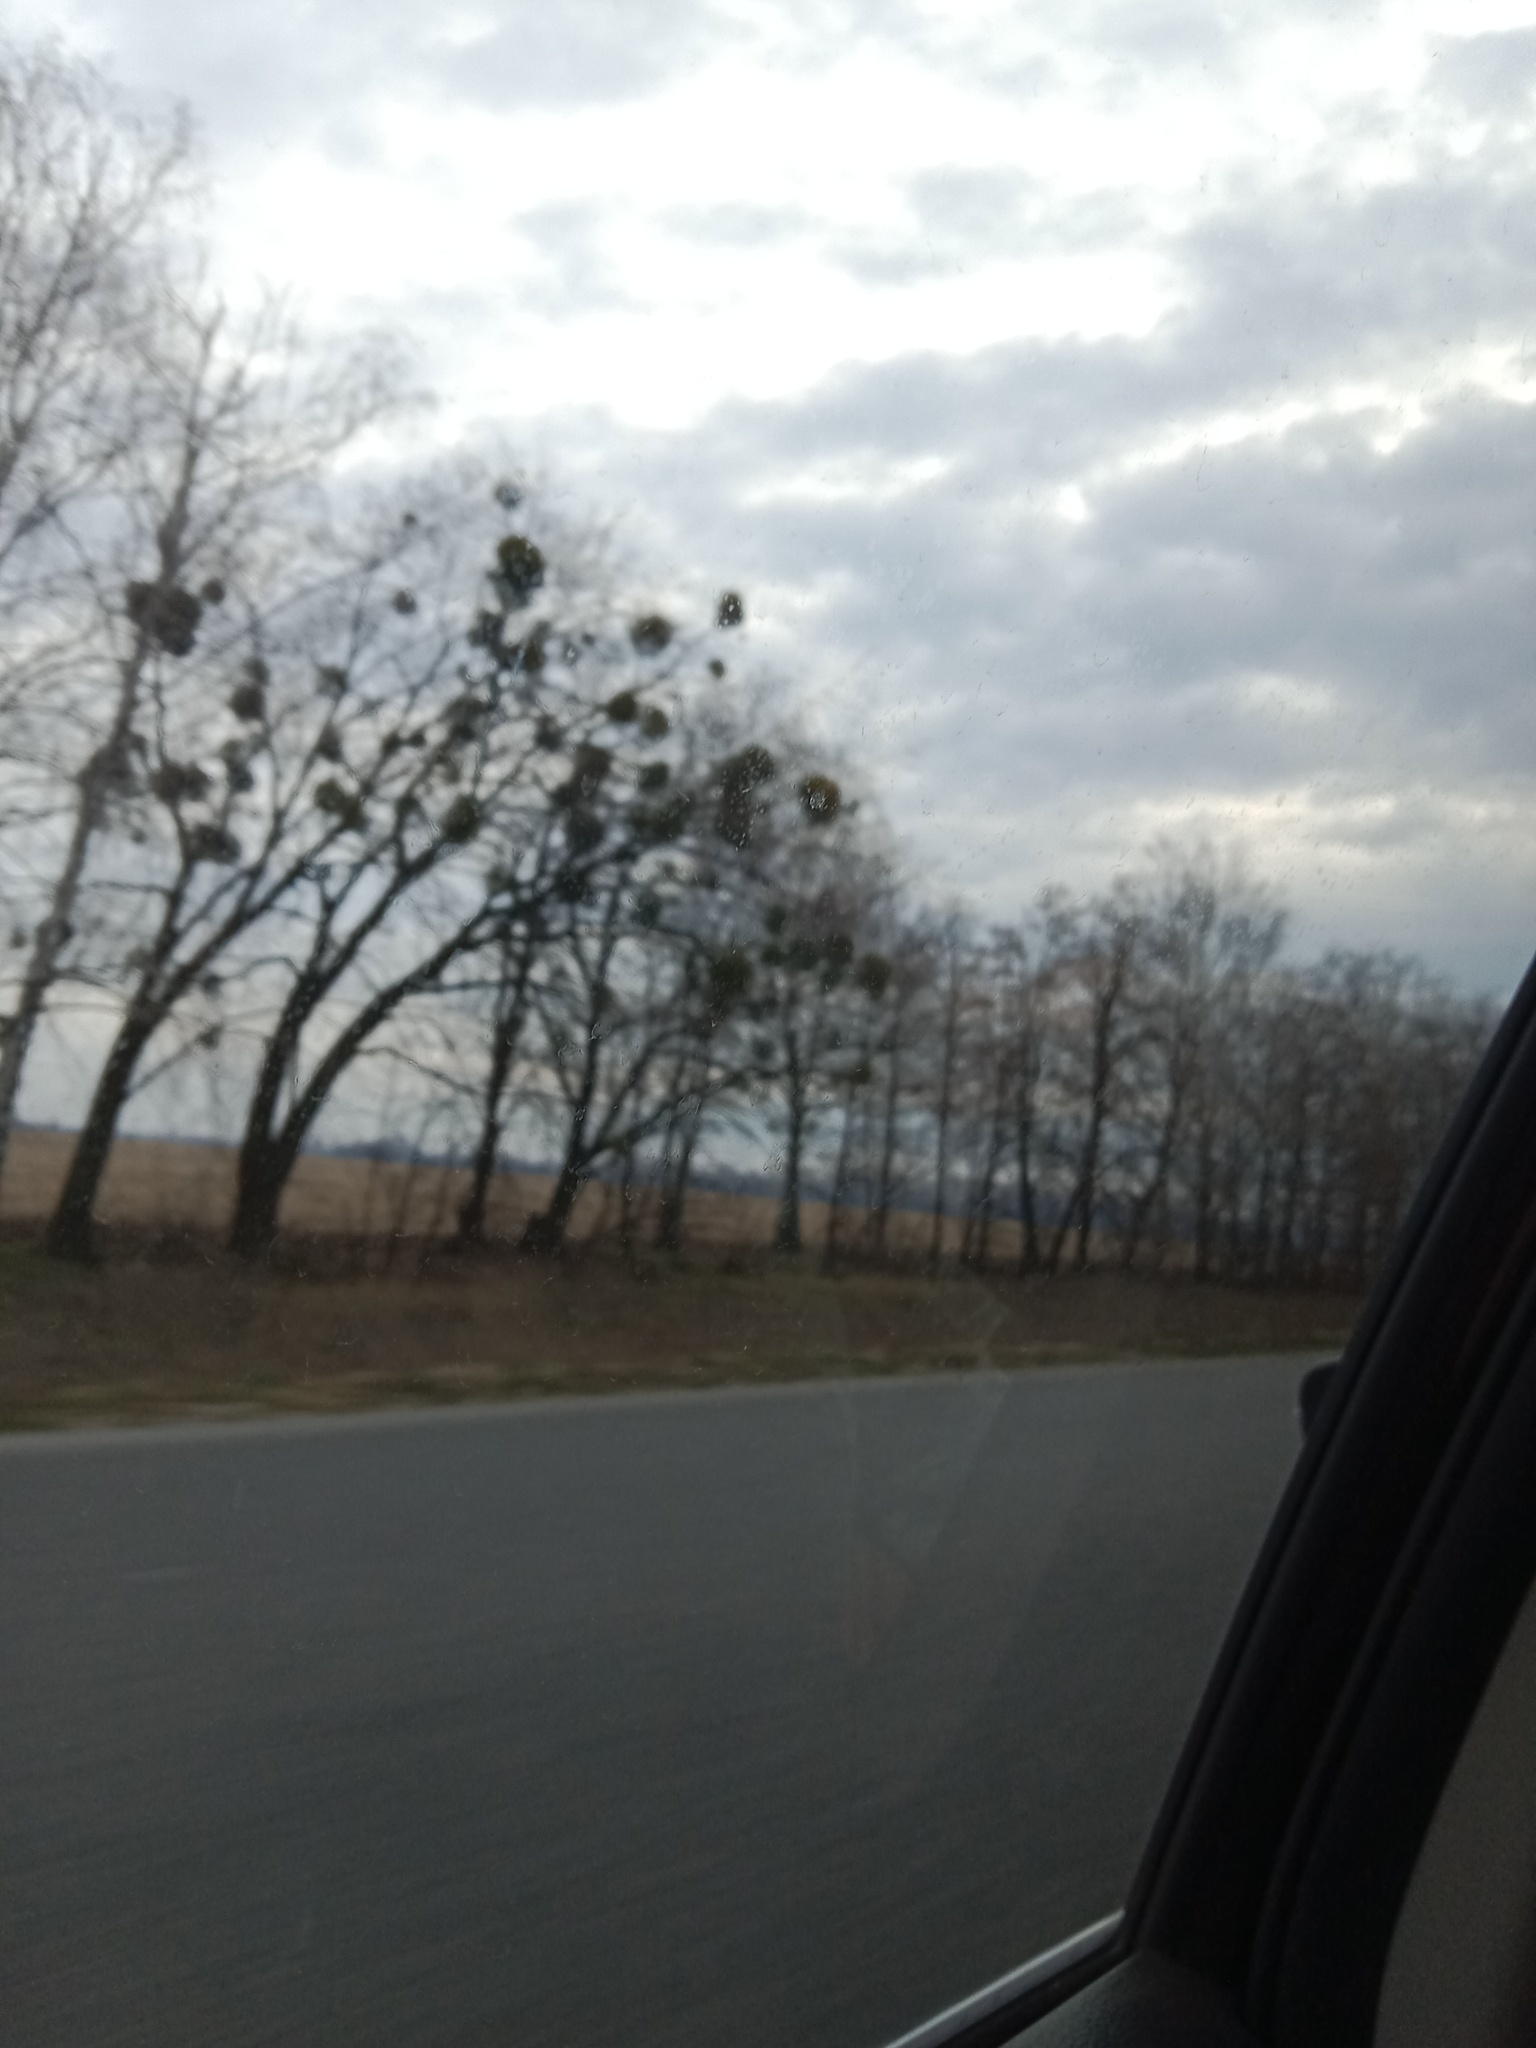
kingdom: Plantae
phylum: Tracheophyta
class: Magnoliopsida
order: Santalales
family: Viscaceae
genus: Viscum
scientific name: Viscum album
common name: Mistletoe
